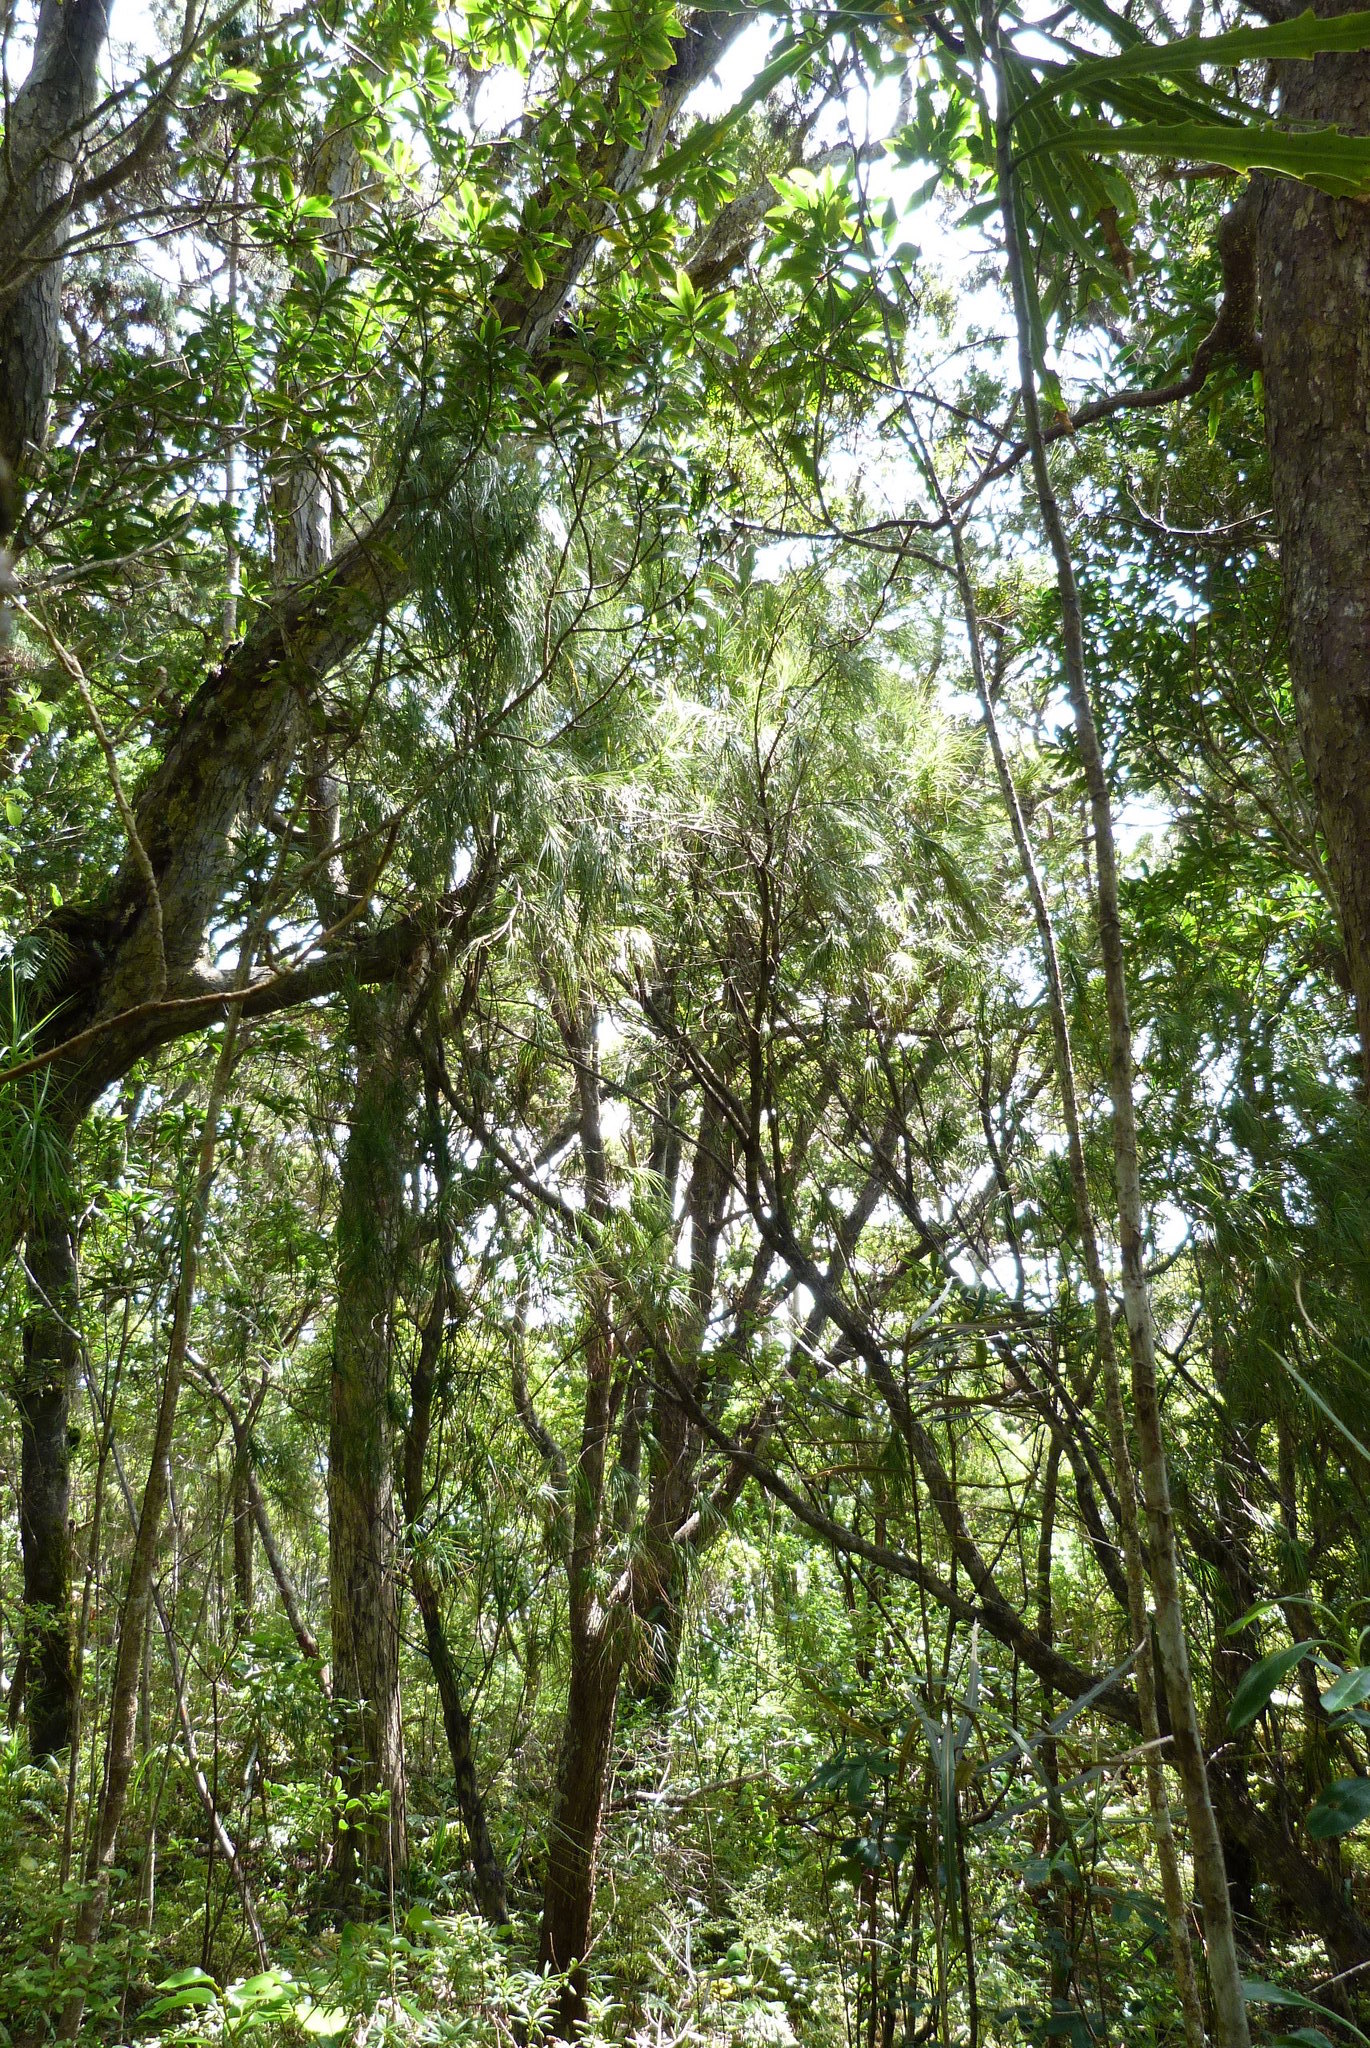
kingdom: Plantae
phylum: Tracheophyta
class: Magnoliopsida
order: Ericales
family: Ericaceae
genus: Dracophyllum
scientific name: Dracophyllum longifolium
